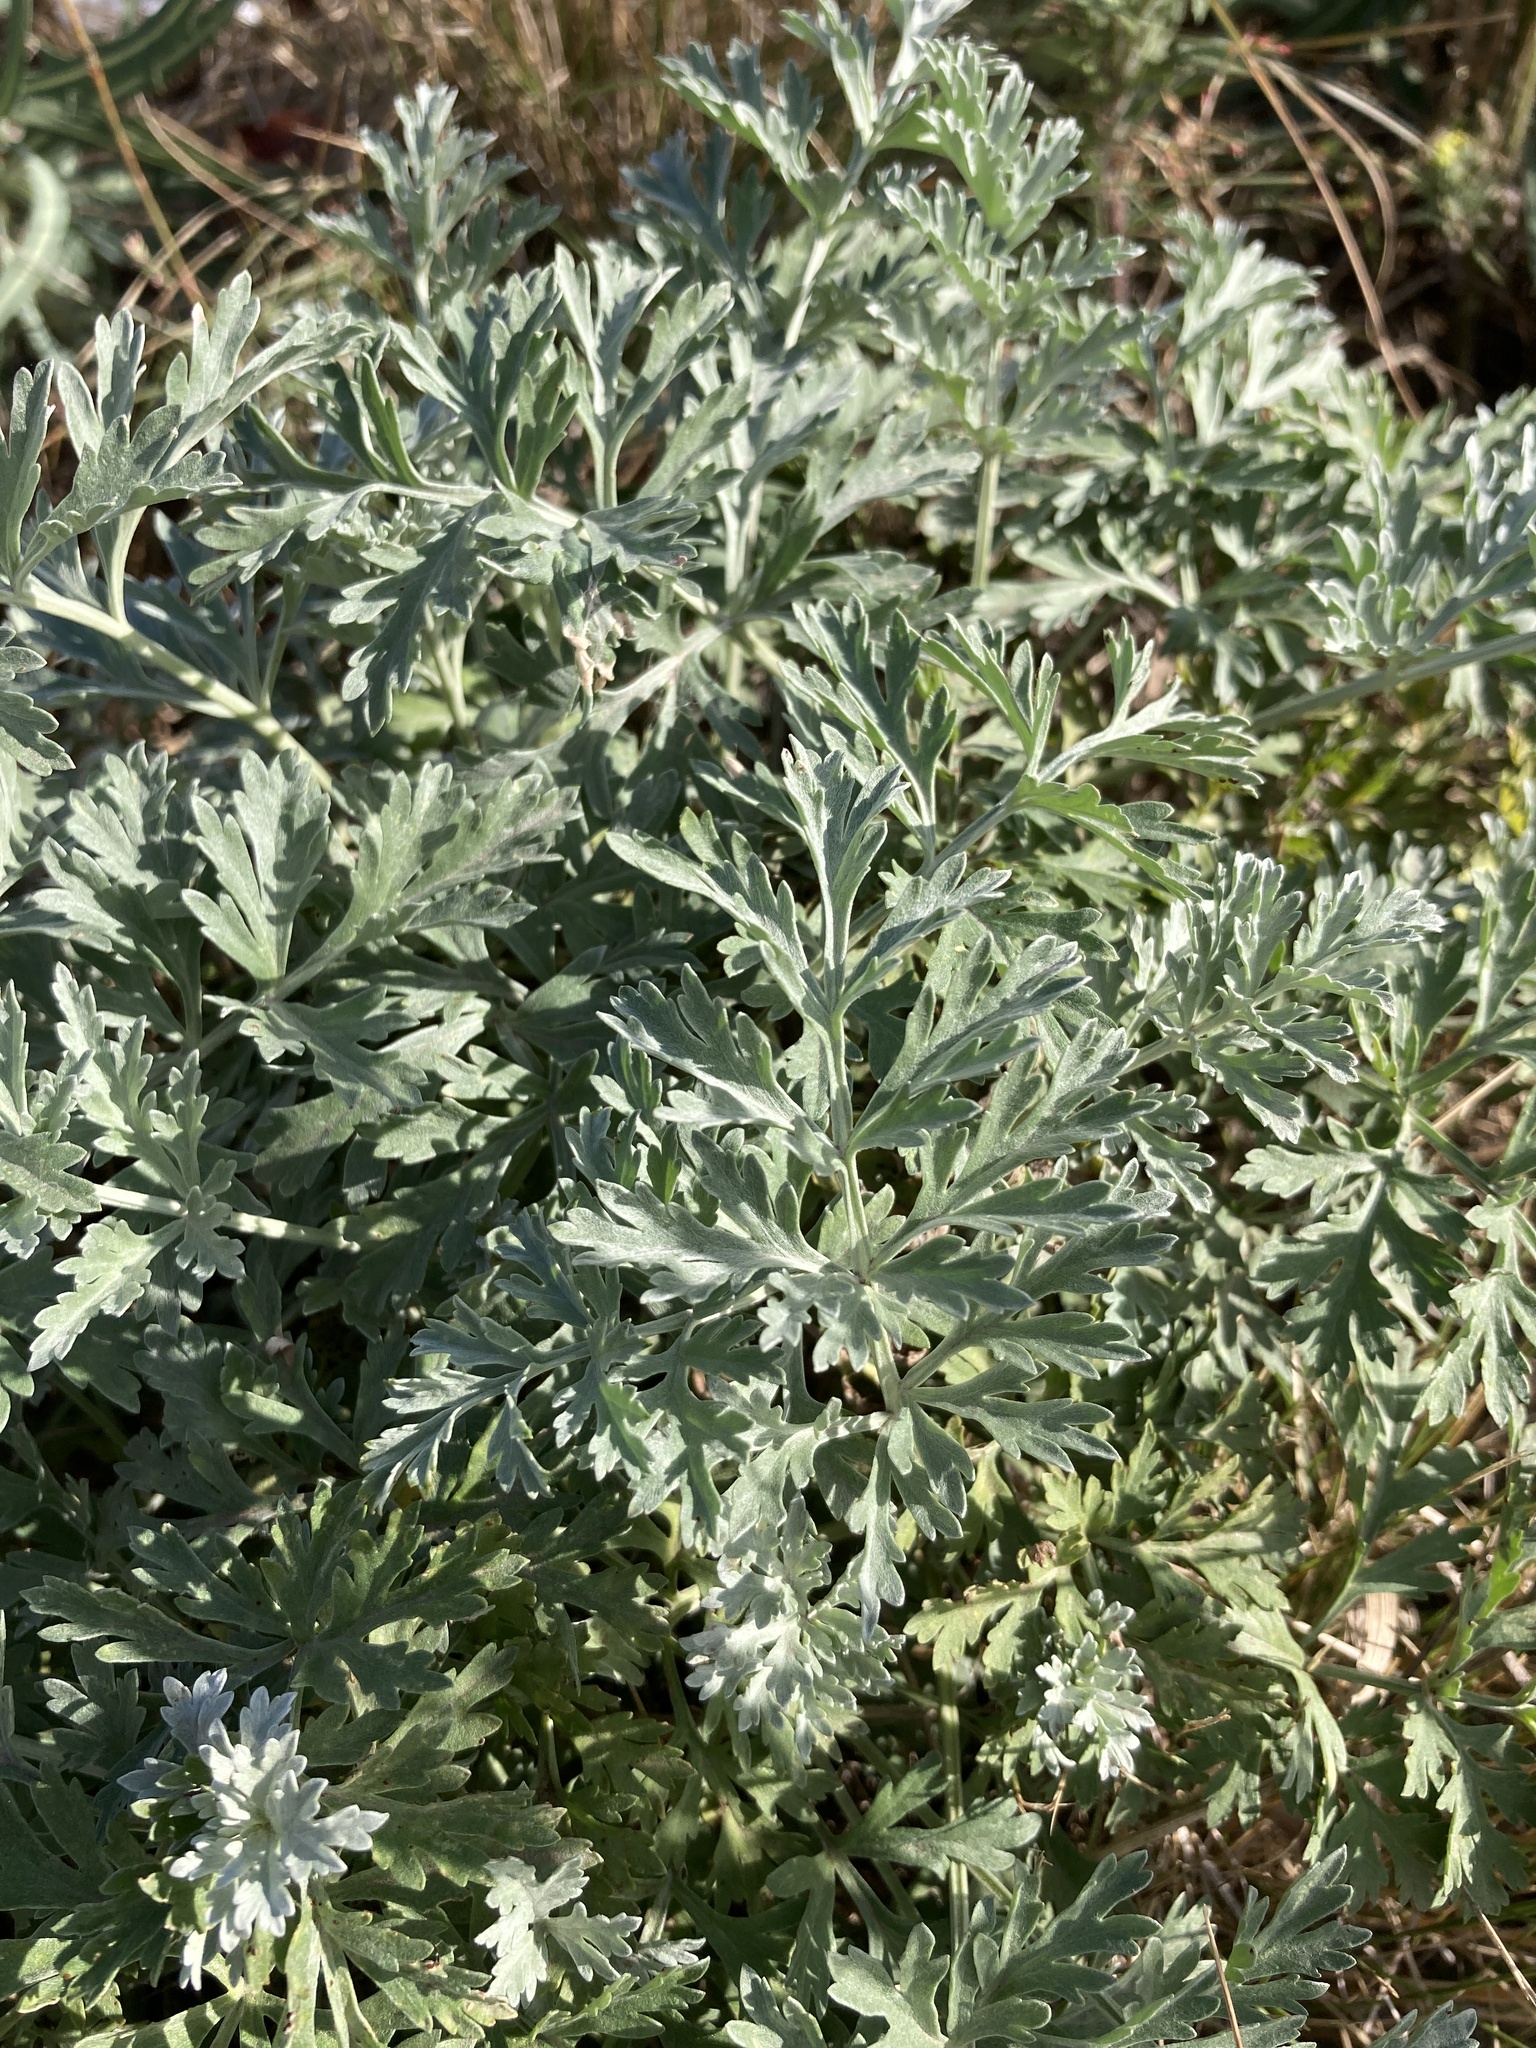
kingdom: Plantae
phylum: Tracheophyta
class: Magnoliopsida
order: Asterales
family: Asteraceae
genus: Artemisia
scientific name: Artemisia absinthium
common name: Wormwood
